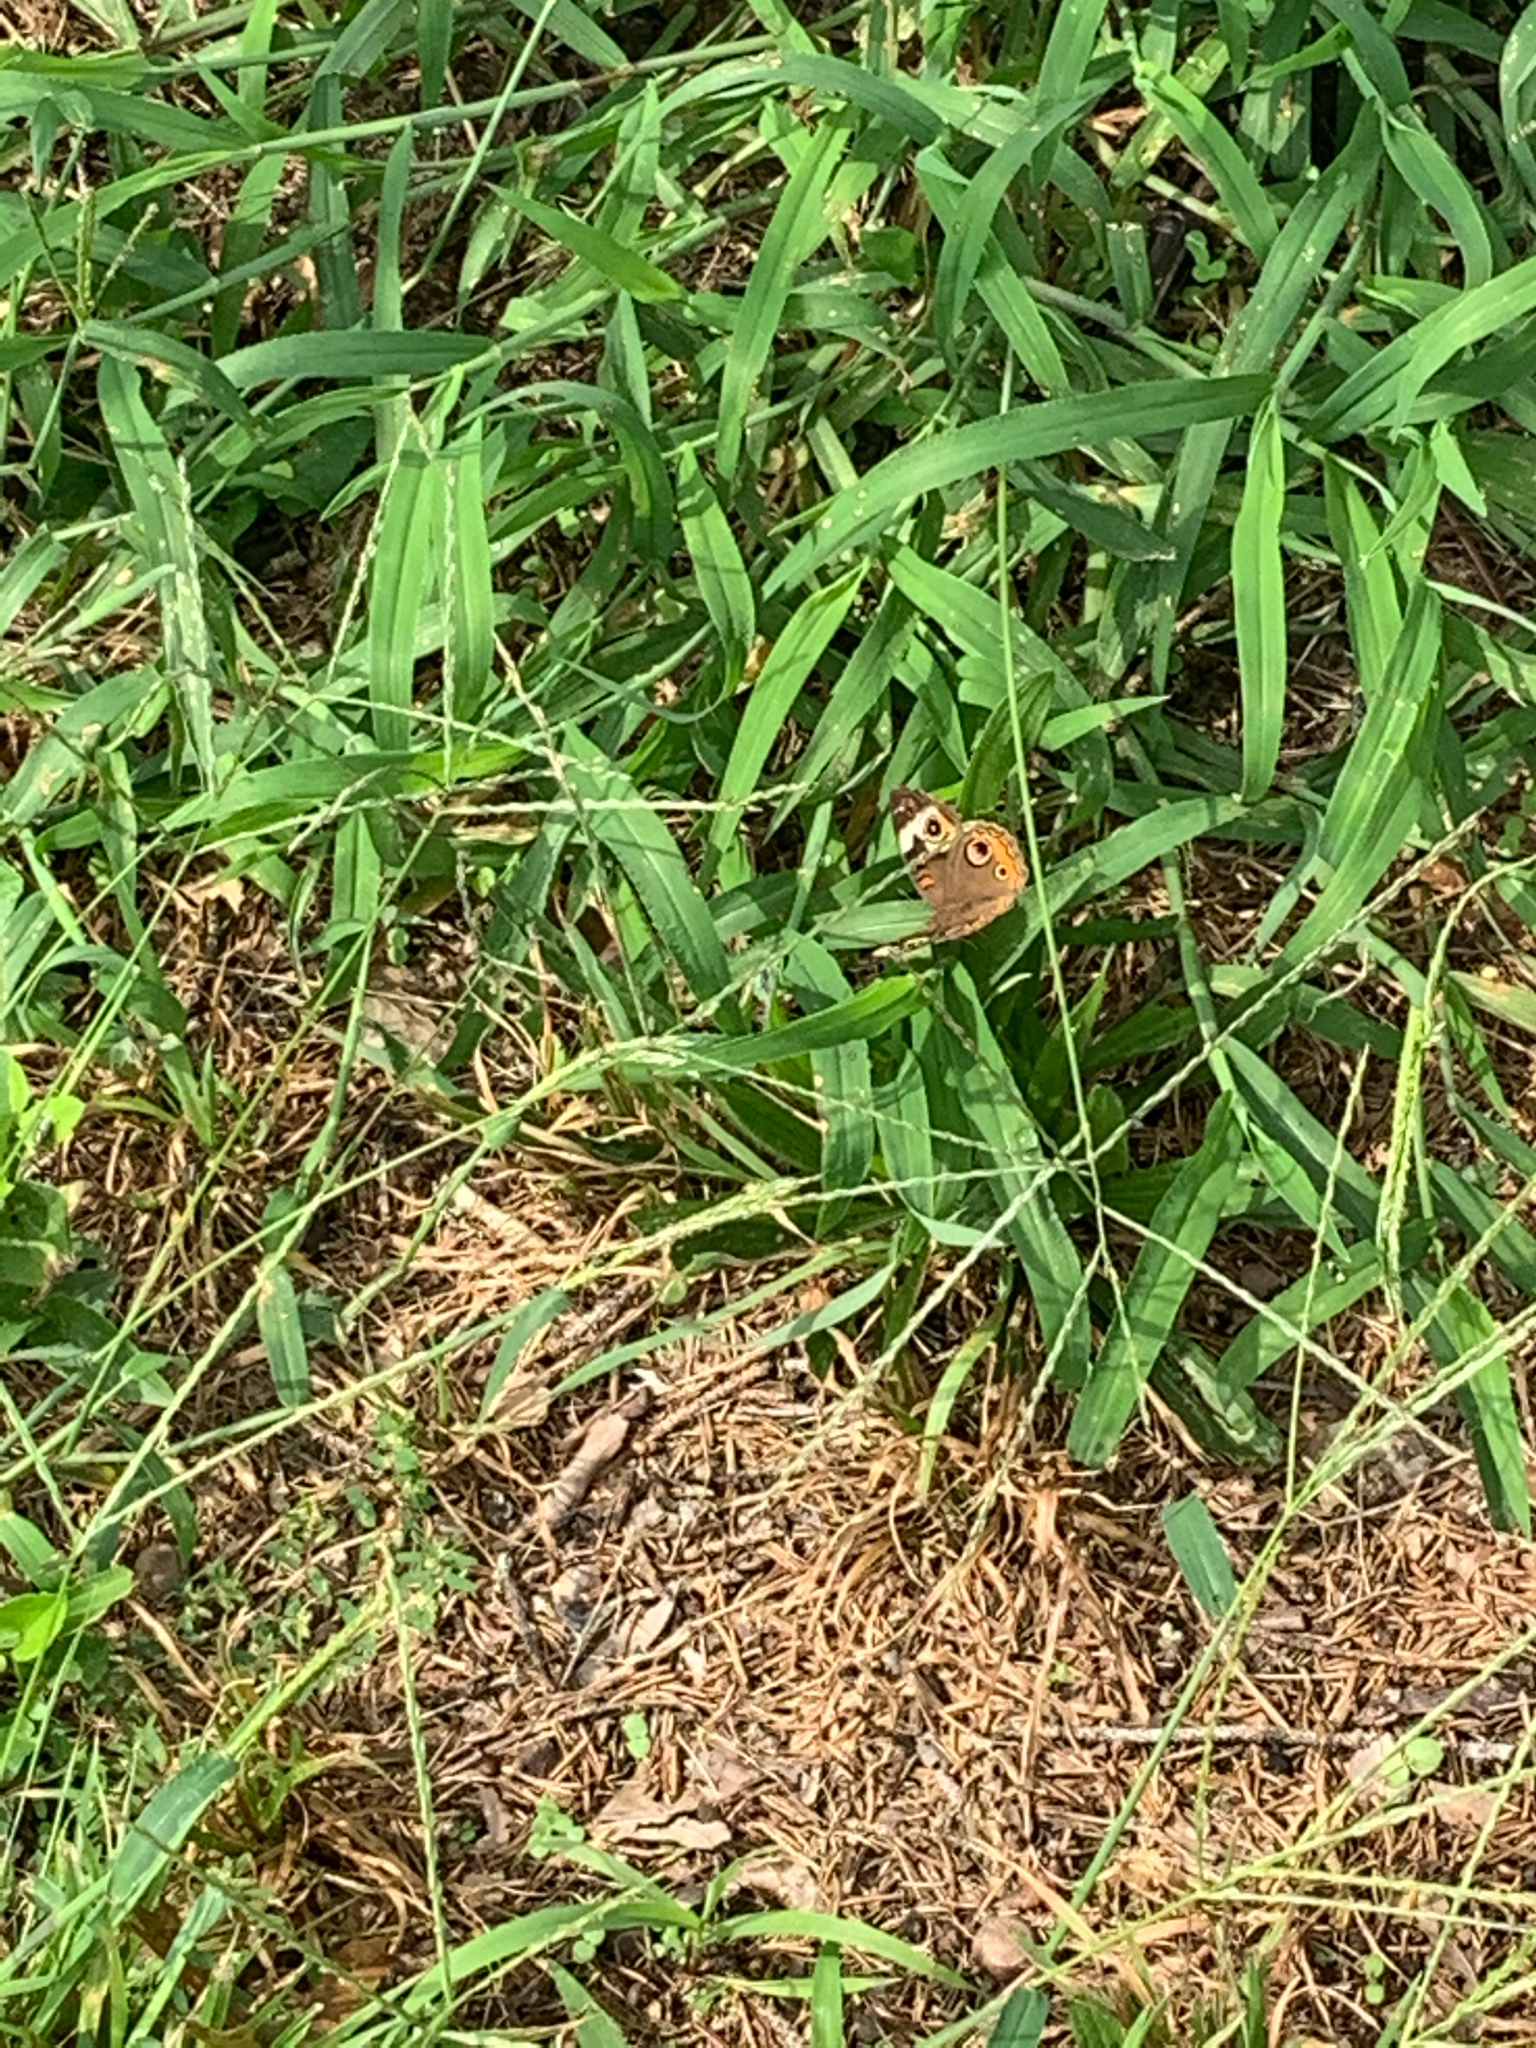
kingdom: Animalia
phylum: Arthropoda
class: Insecta
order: Lepidoptera
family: Nymphalidae
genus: Junonia
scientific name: Junonia coenia
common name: Common buckeye
